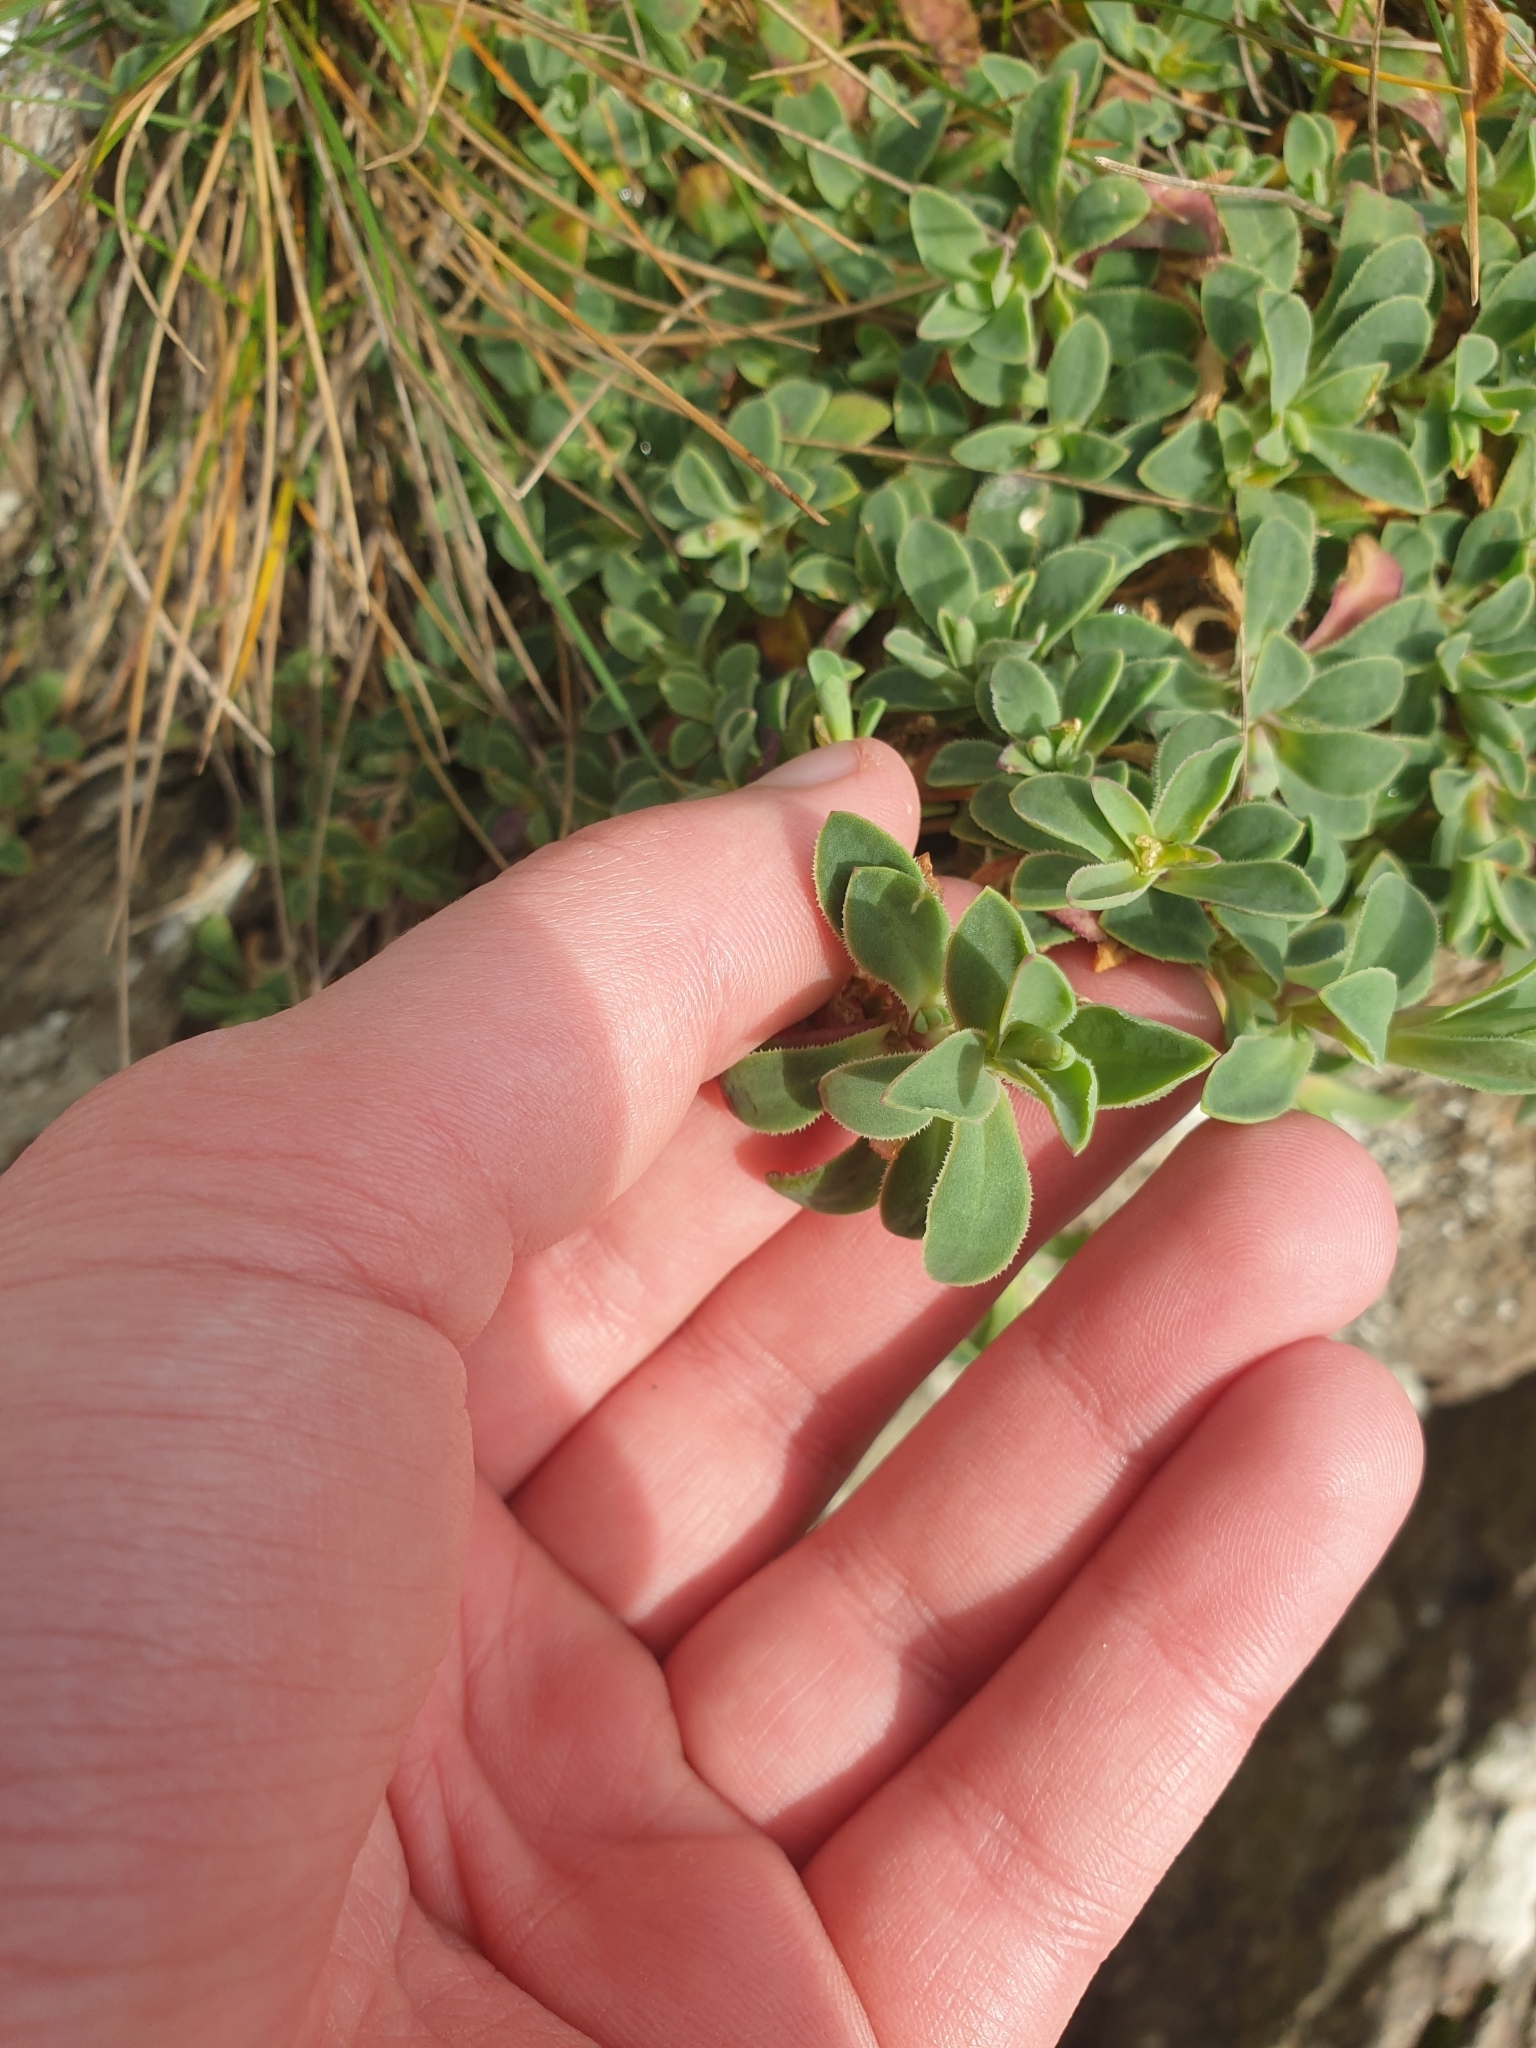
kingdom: Plantae
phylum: Tracheophyta
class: Magnoliopsida
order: Caryophyllales
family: Caryophyllaceae
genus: Silene
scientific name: Silene uniflora
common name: Sea campion
